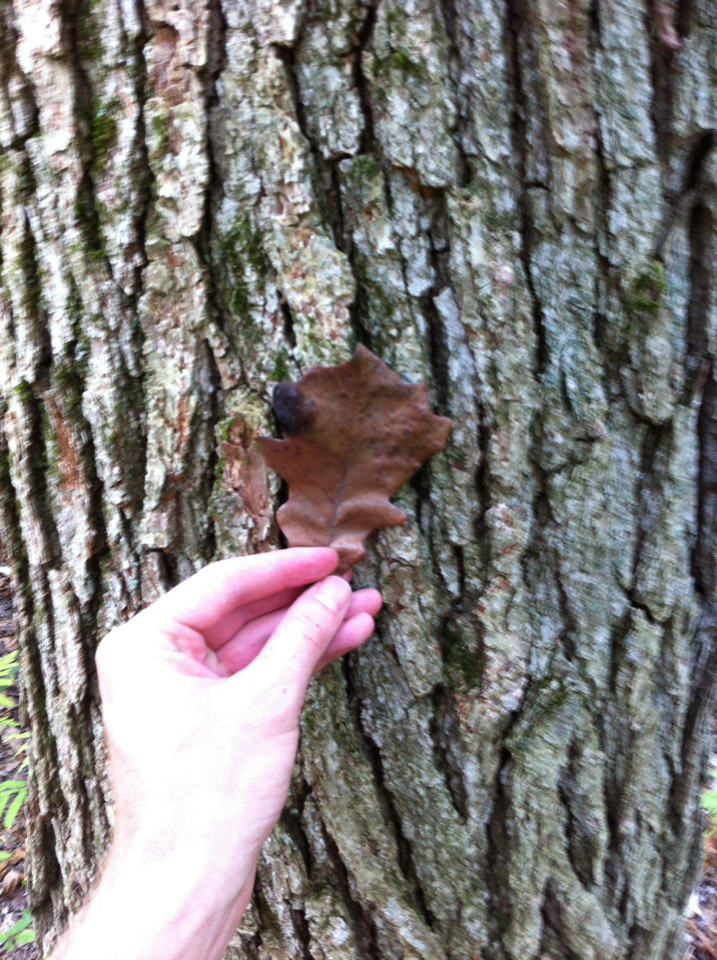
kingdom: Plantae
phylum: Tracheophyta
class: Magnoliopsida
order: Fagales
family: Fagaceae
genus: Quercus
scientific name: Quercus bicolor
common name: Swamp white oak
